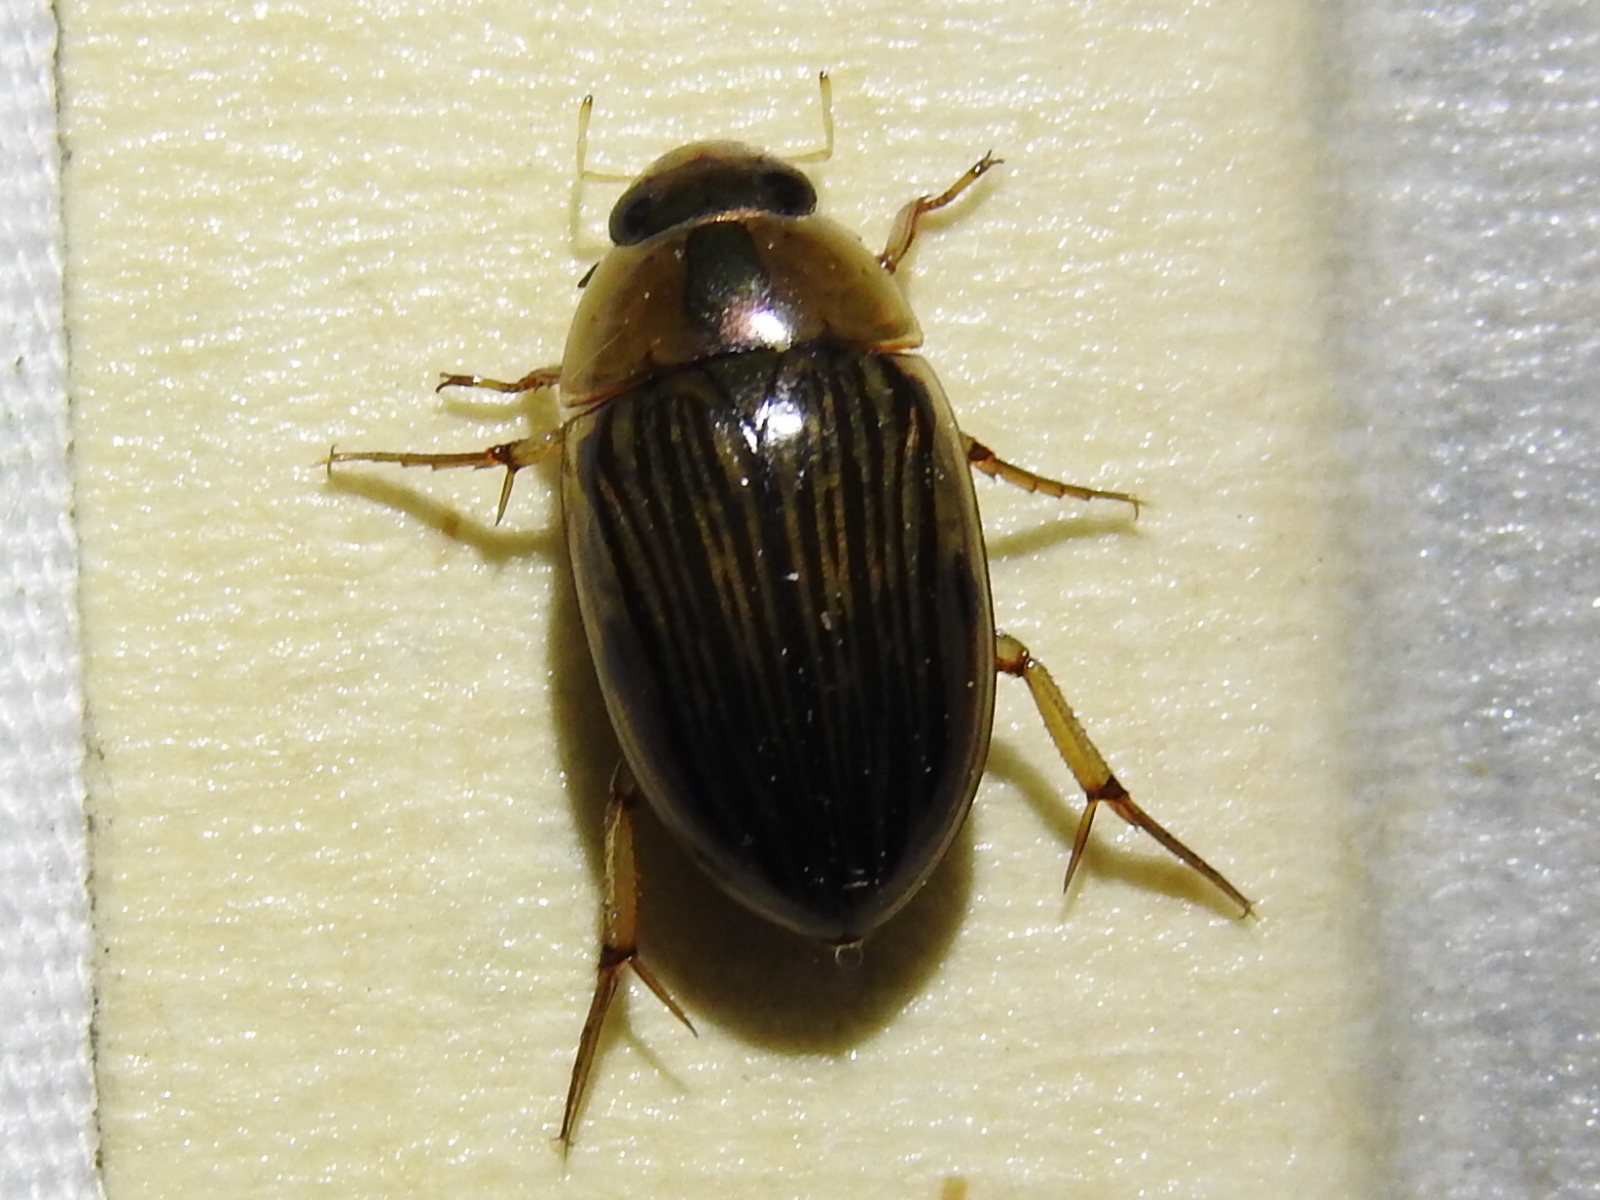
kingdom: Animalia
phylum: Arthropoda
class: Insecta
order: Coleoptera
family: Hydrophilidae
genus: Tropisternus
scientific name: Tropisternus collaris
